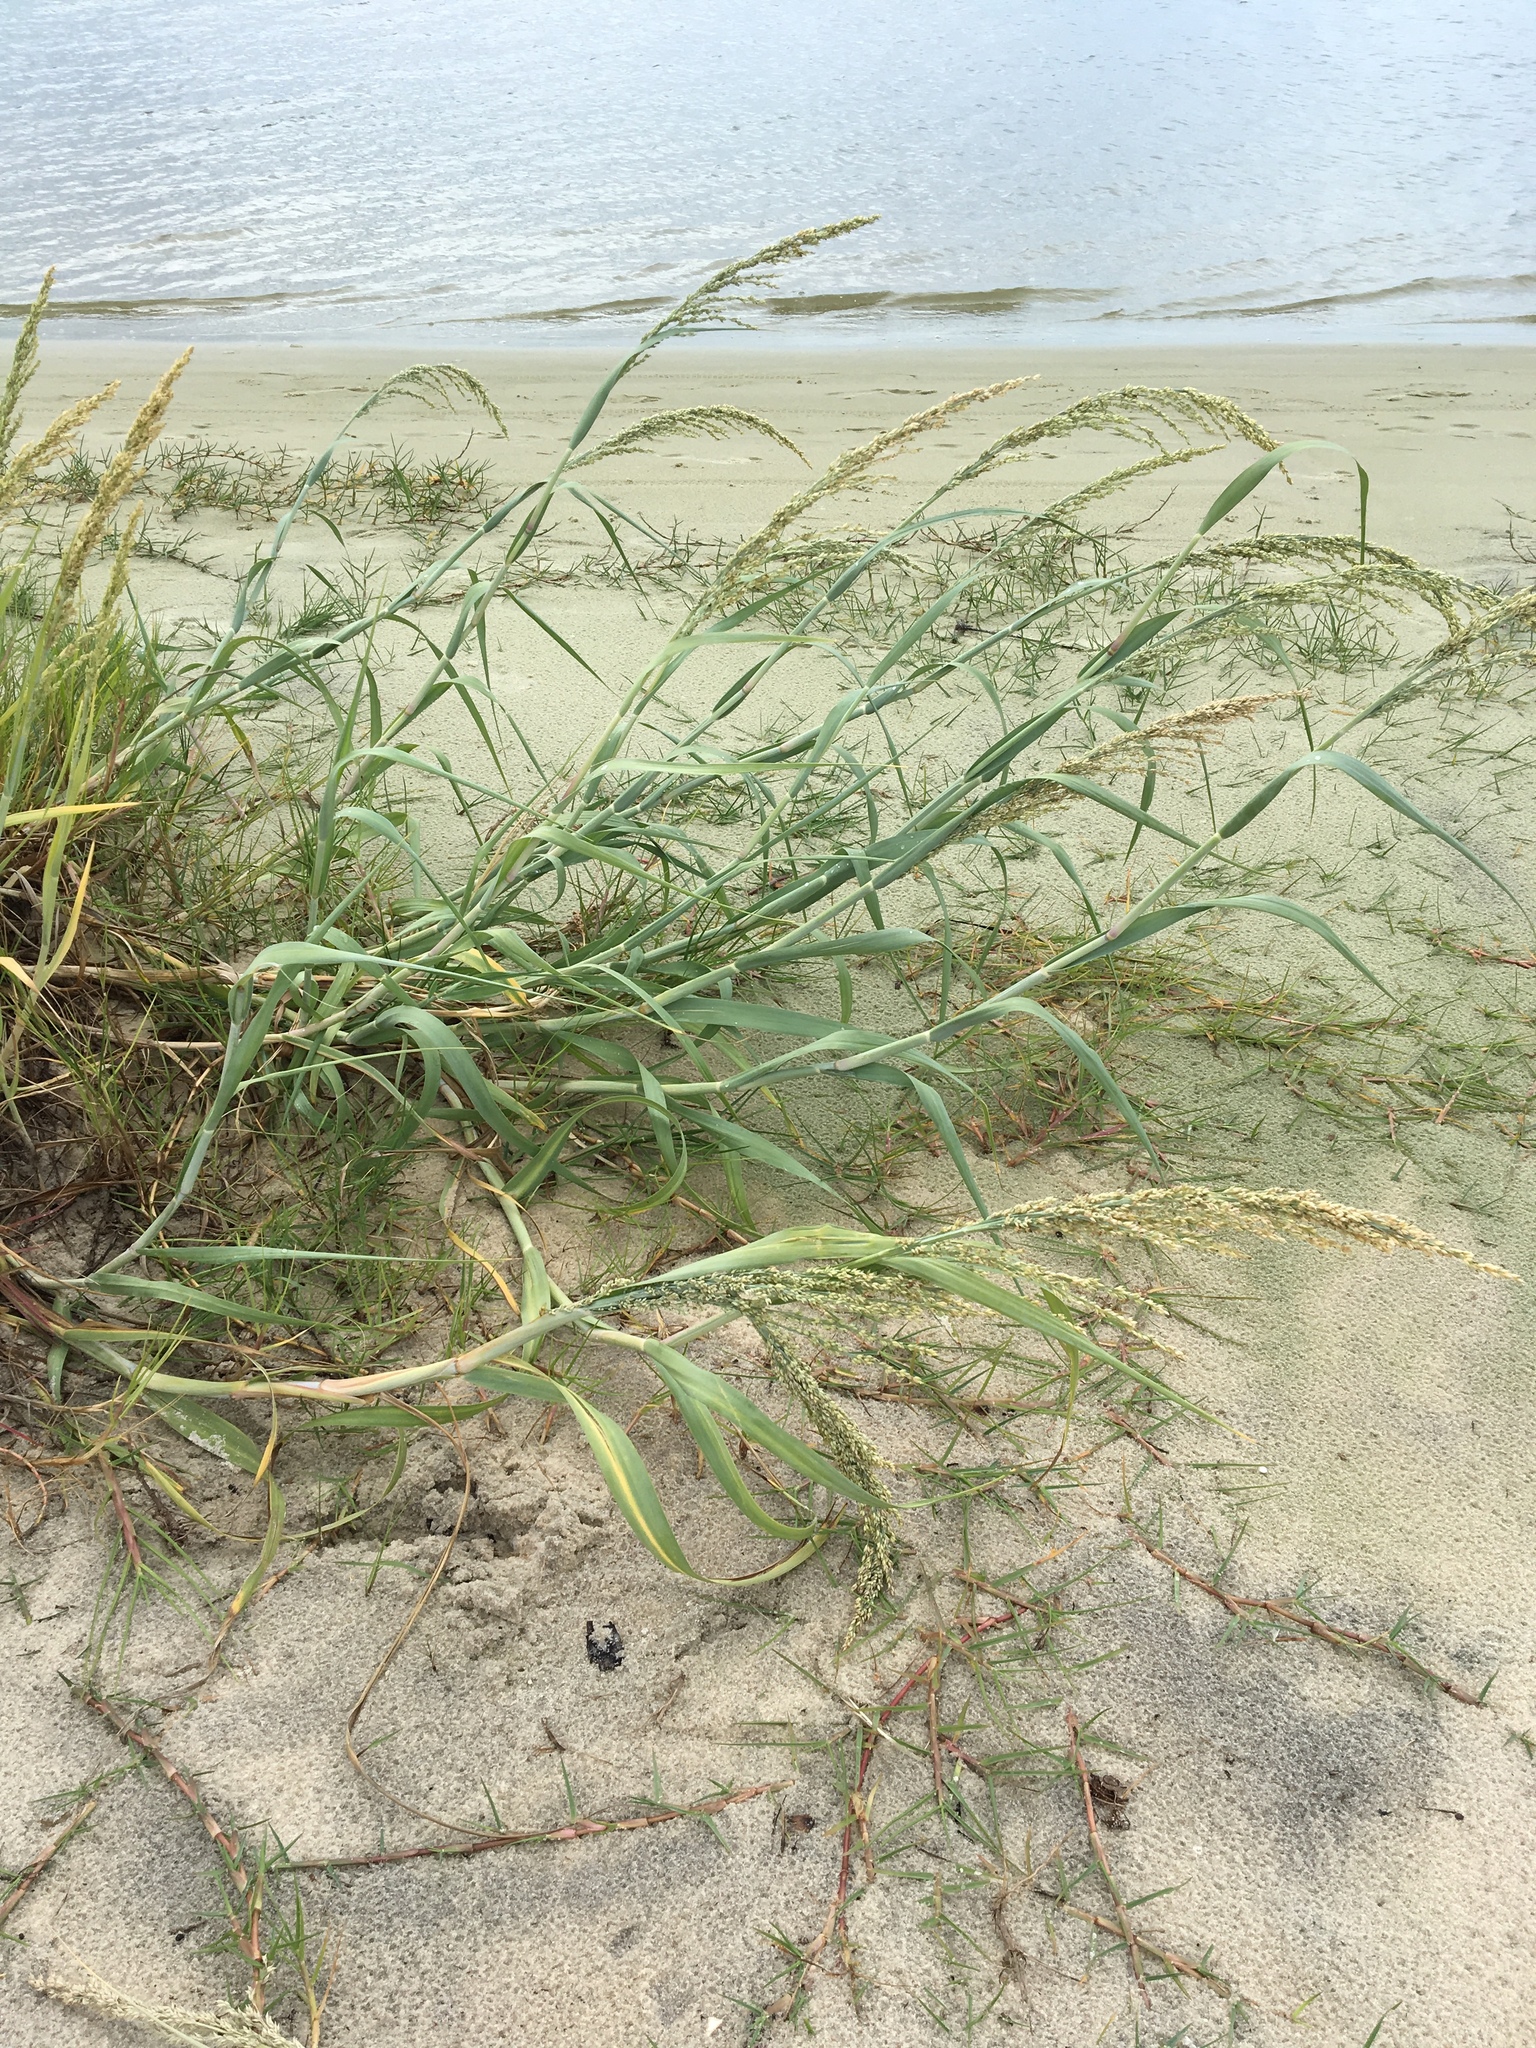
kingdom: Plantae
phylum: Tracheophyta
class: Liliopsida
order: Poales
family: Poaceae
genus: Panicum
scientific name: Panicum amarum
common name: Bitter panicum
